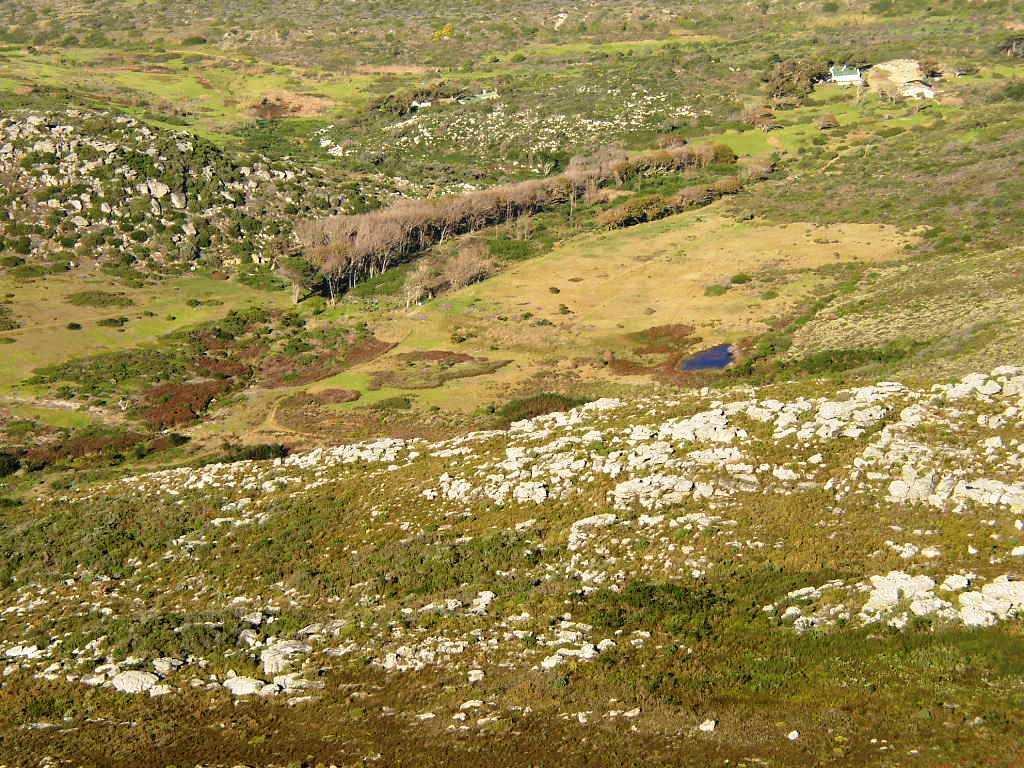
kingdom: Plantae
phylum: Tracheophyta
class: Magnoliopsida
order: Malpighiales
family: Salicaceae
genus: Populus
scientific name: Populus canescens
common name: Gray poplar
